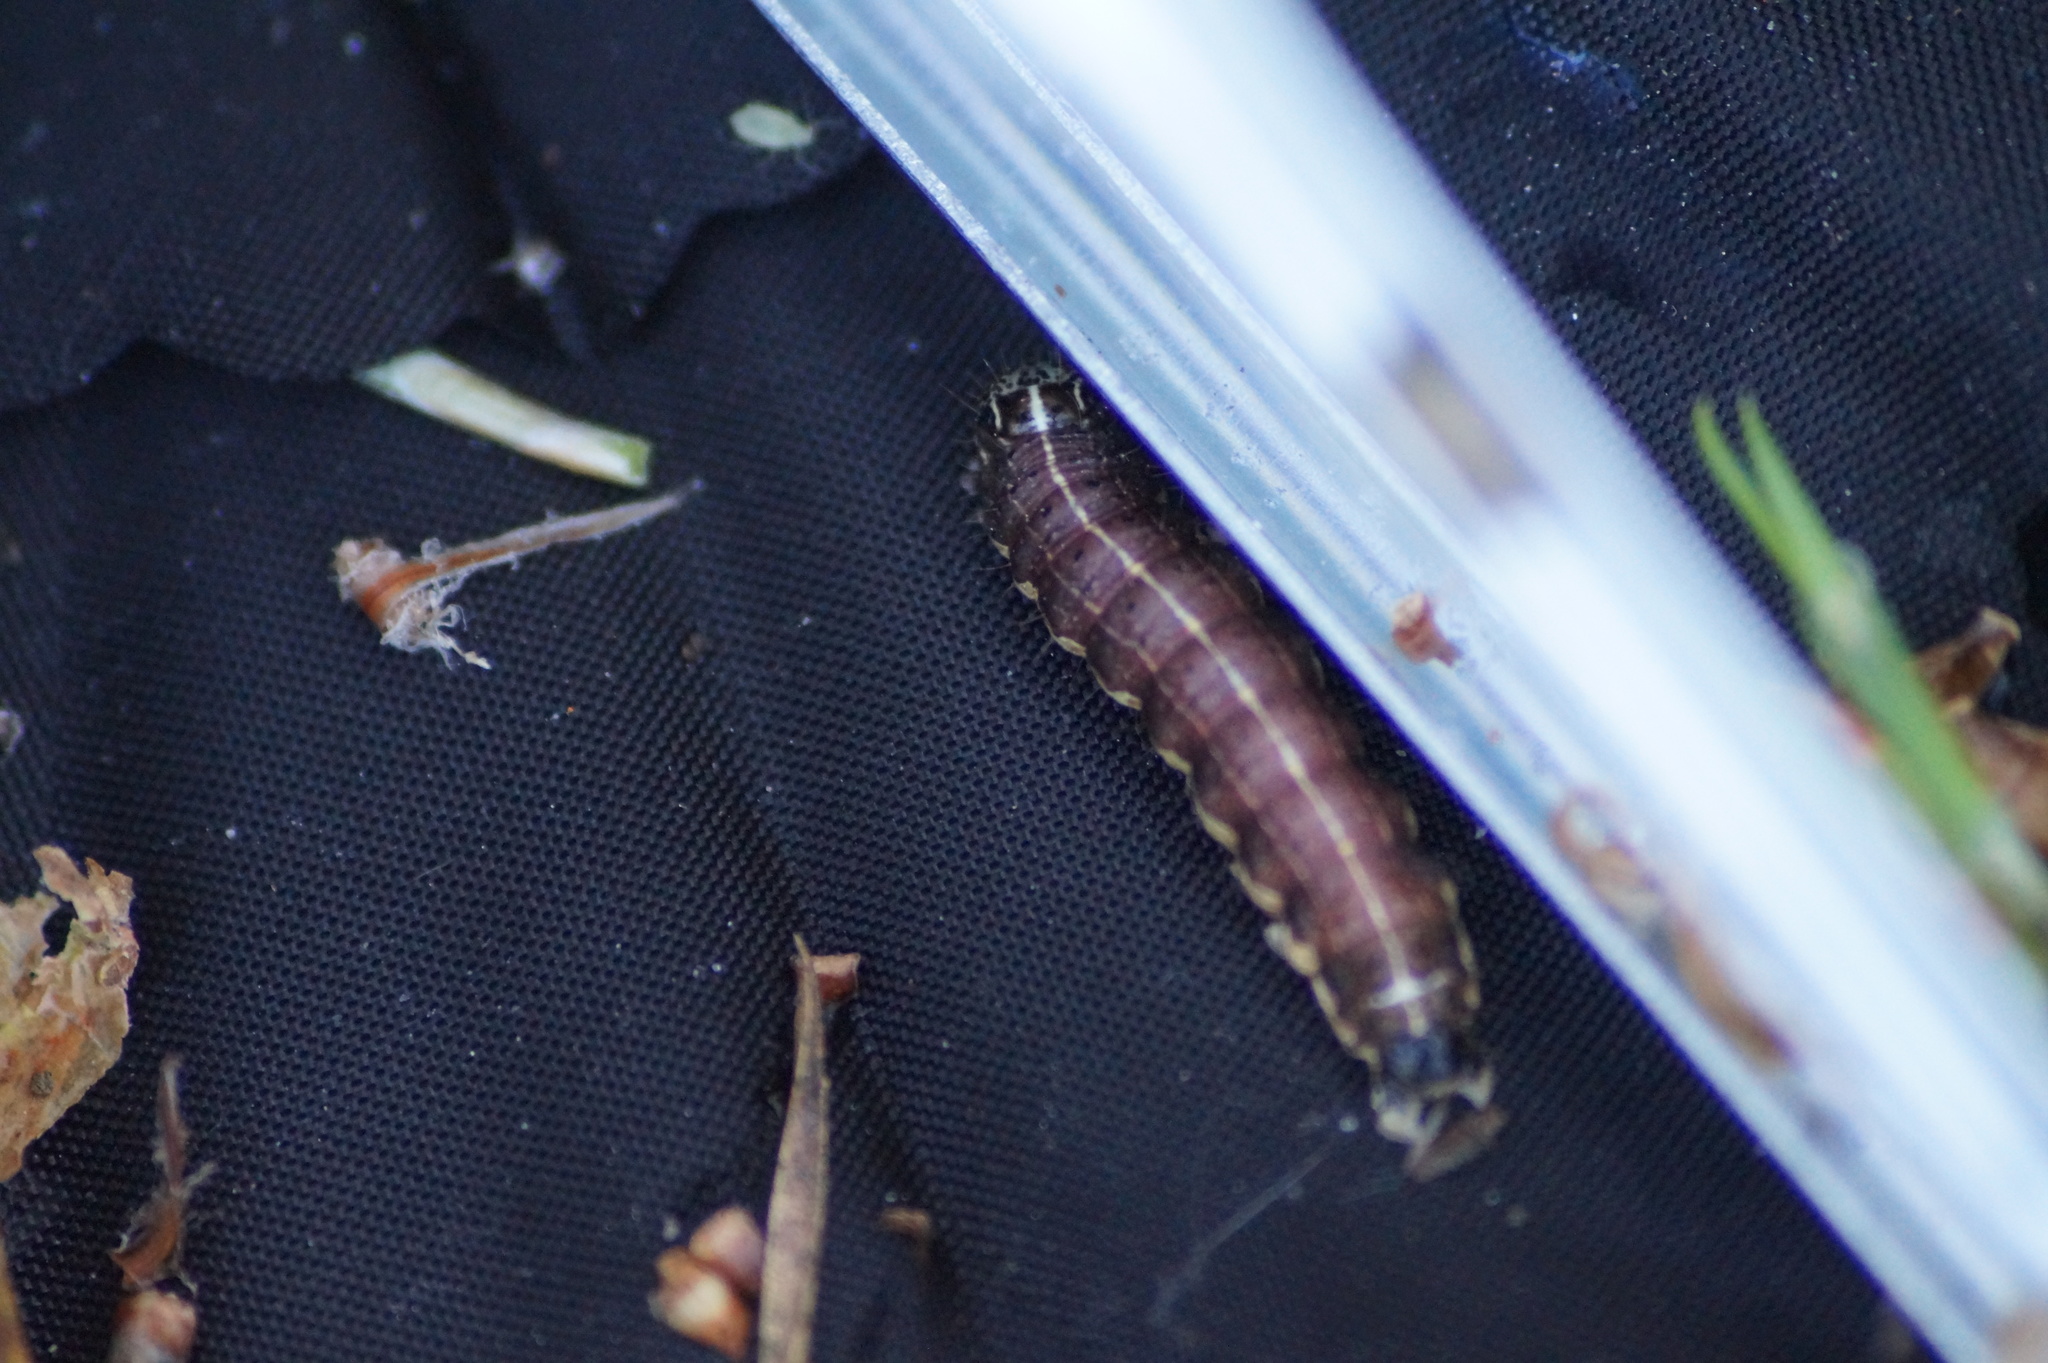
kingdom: Animalia
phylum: Arthropoda
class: Insecta
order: Lepidoptera
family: Noctuidae
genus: Orthosia
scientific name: Orthosia cruda
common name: Small quaker
